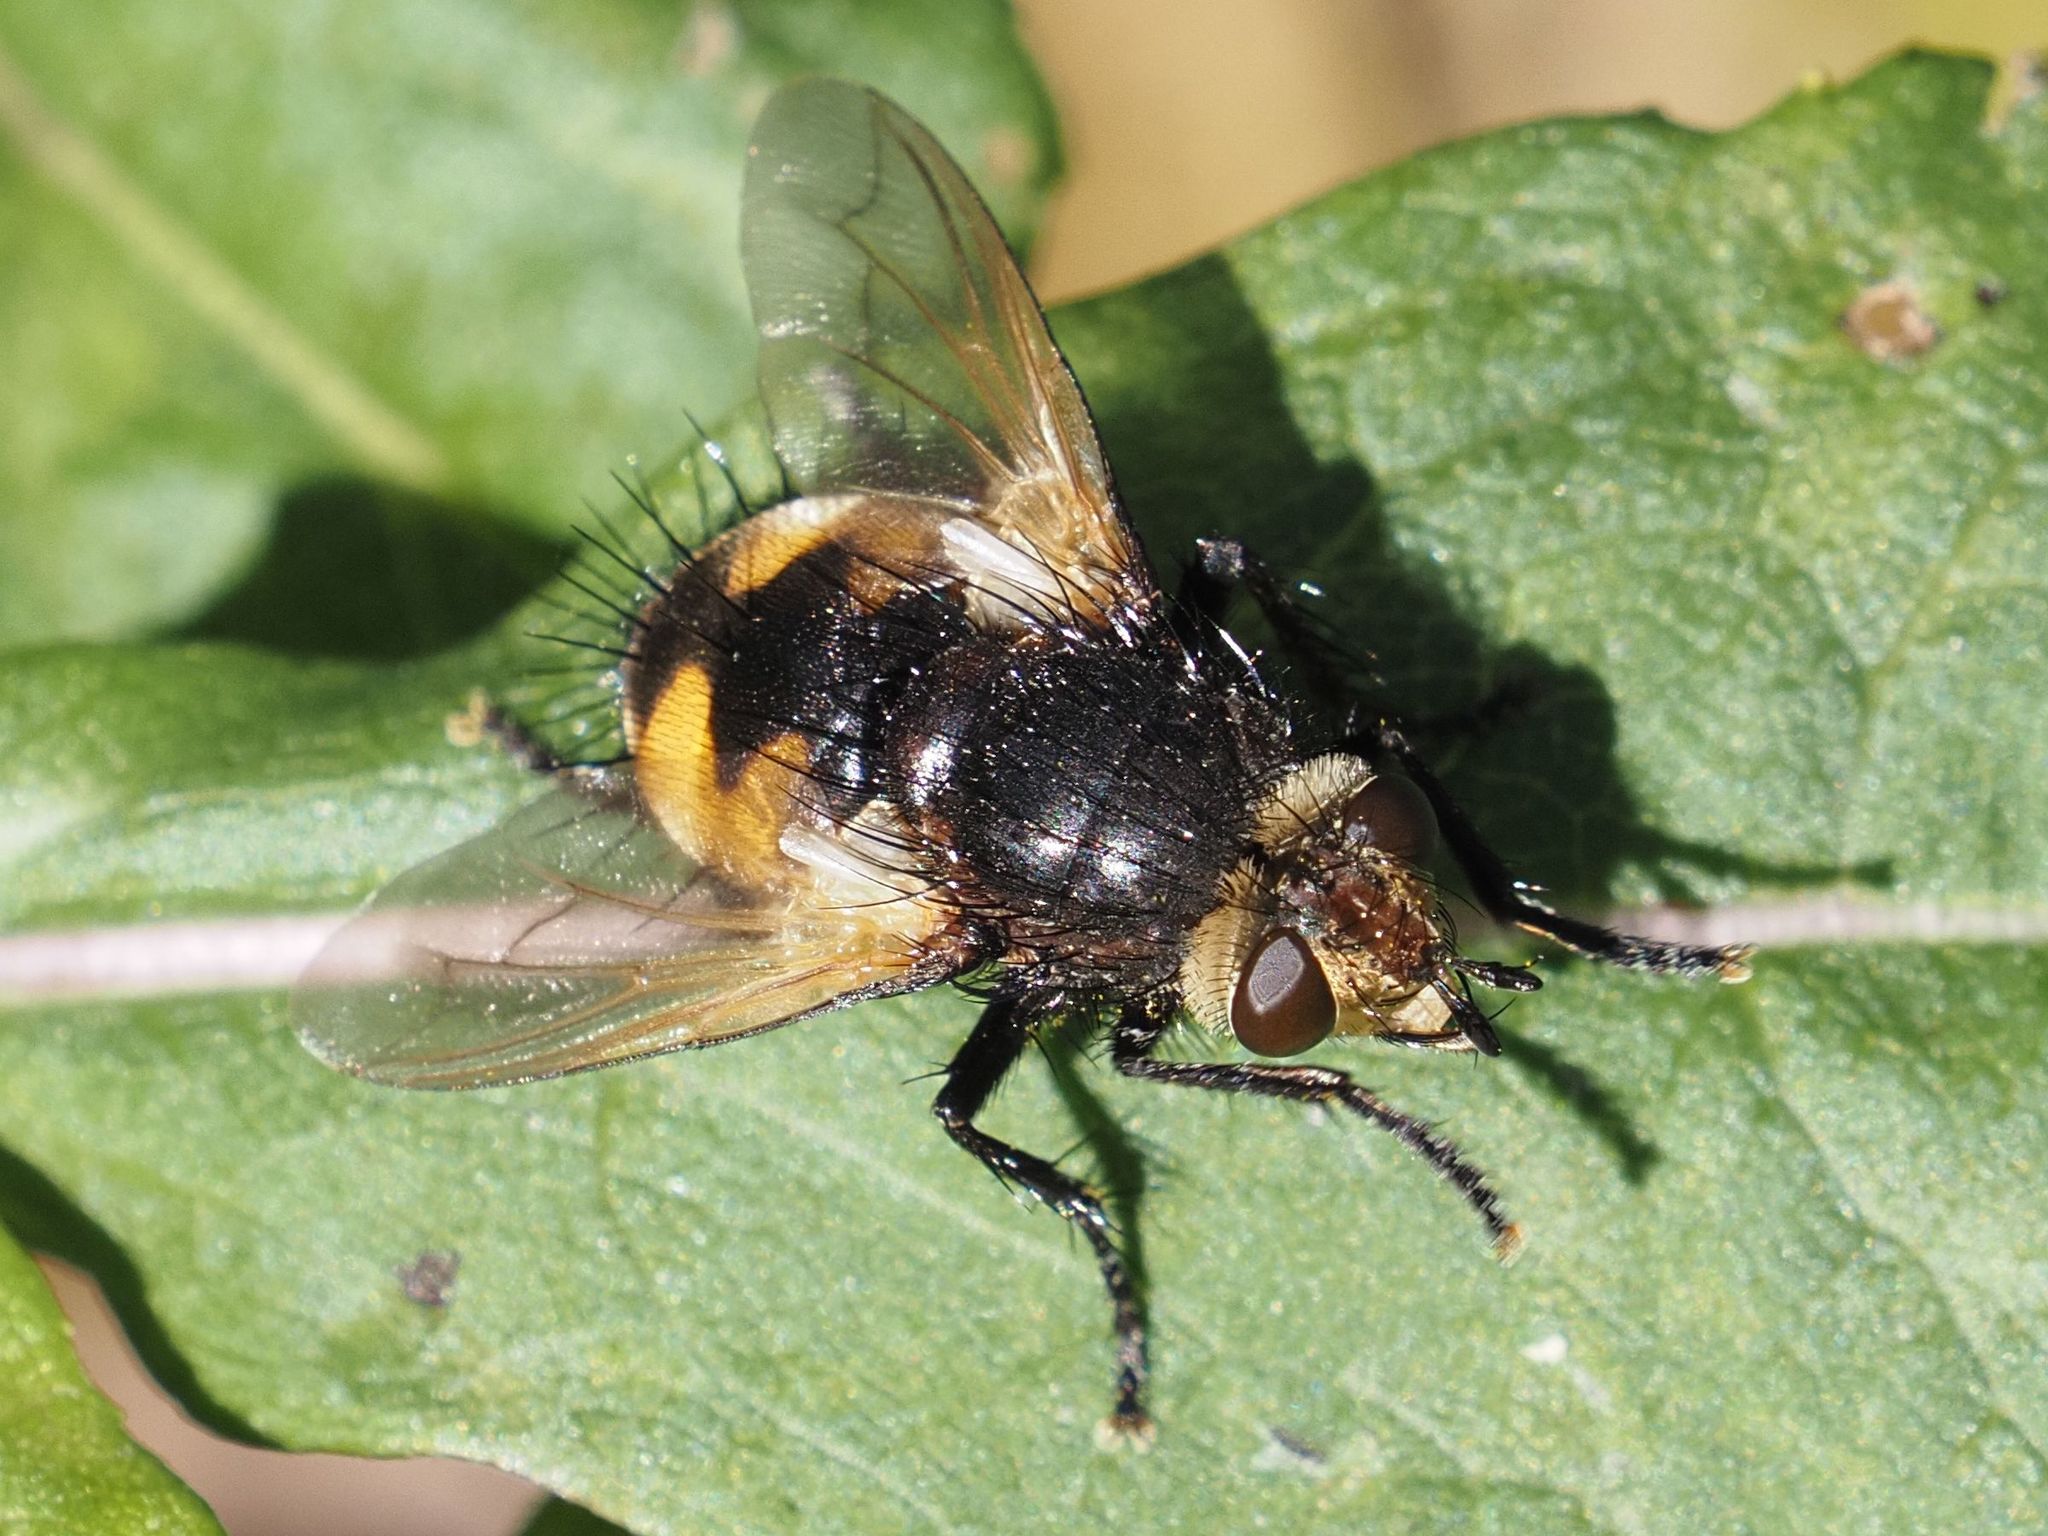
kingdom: Animalia
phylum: Arthropoda
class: Insecta
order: Diptera
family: Tachinidae
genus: Nowickia
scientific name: Nowickia ferox
